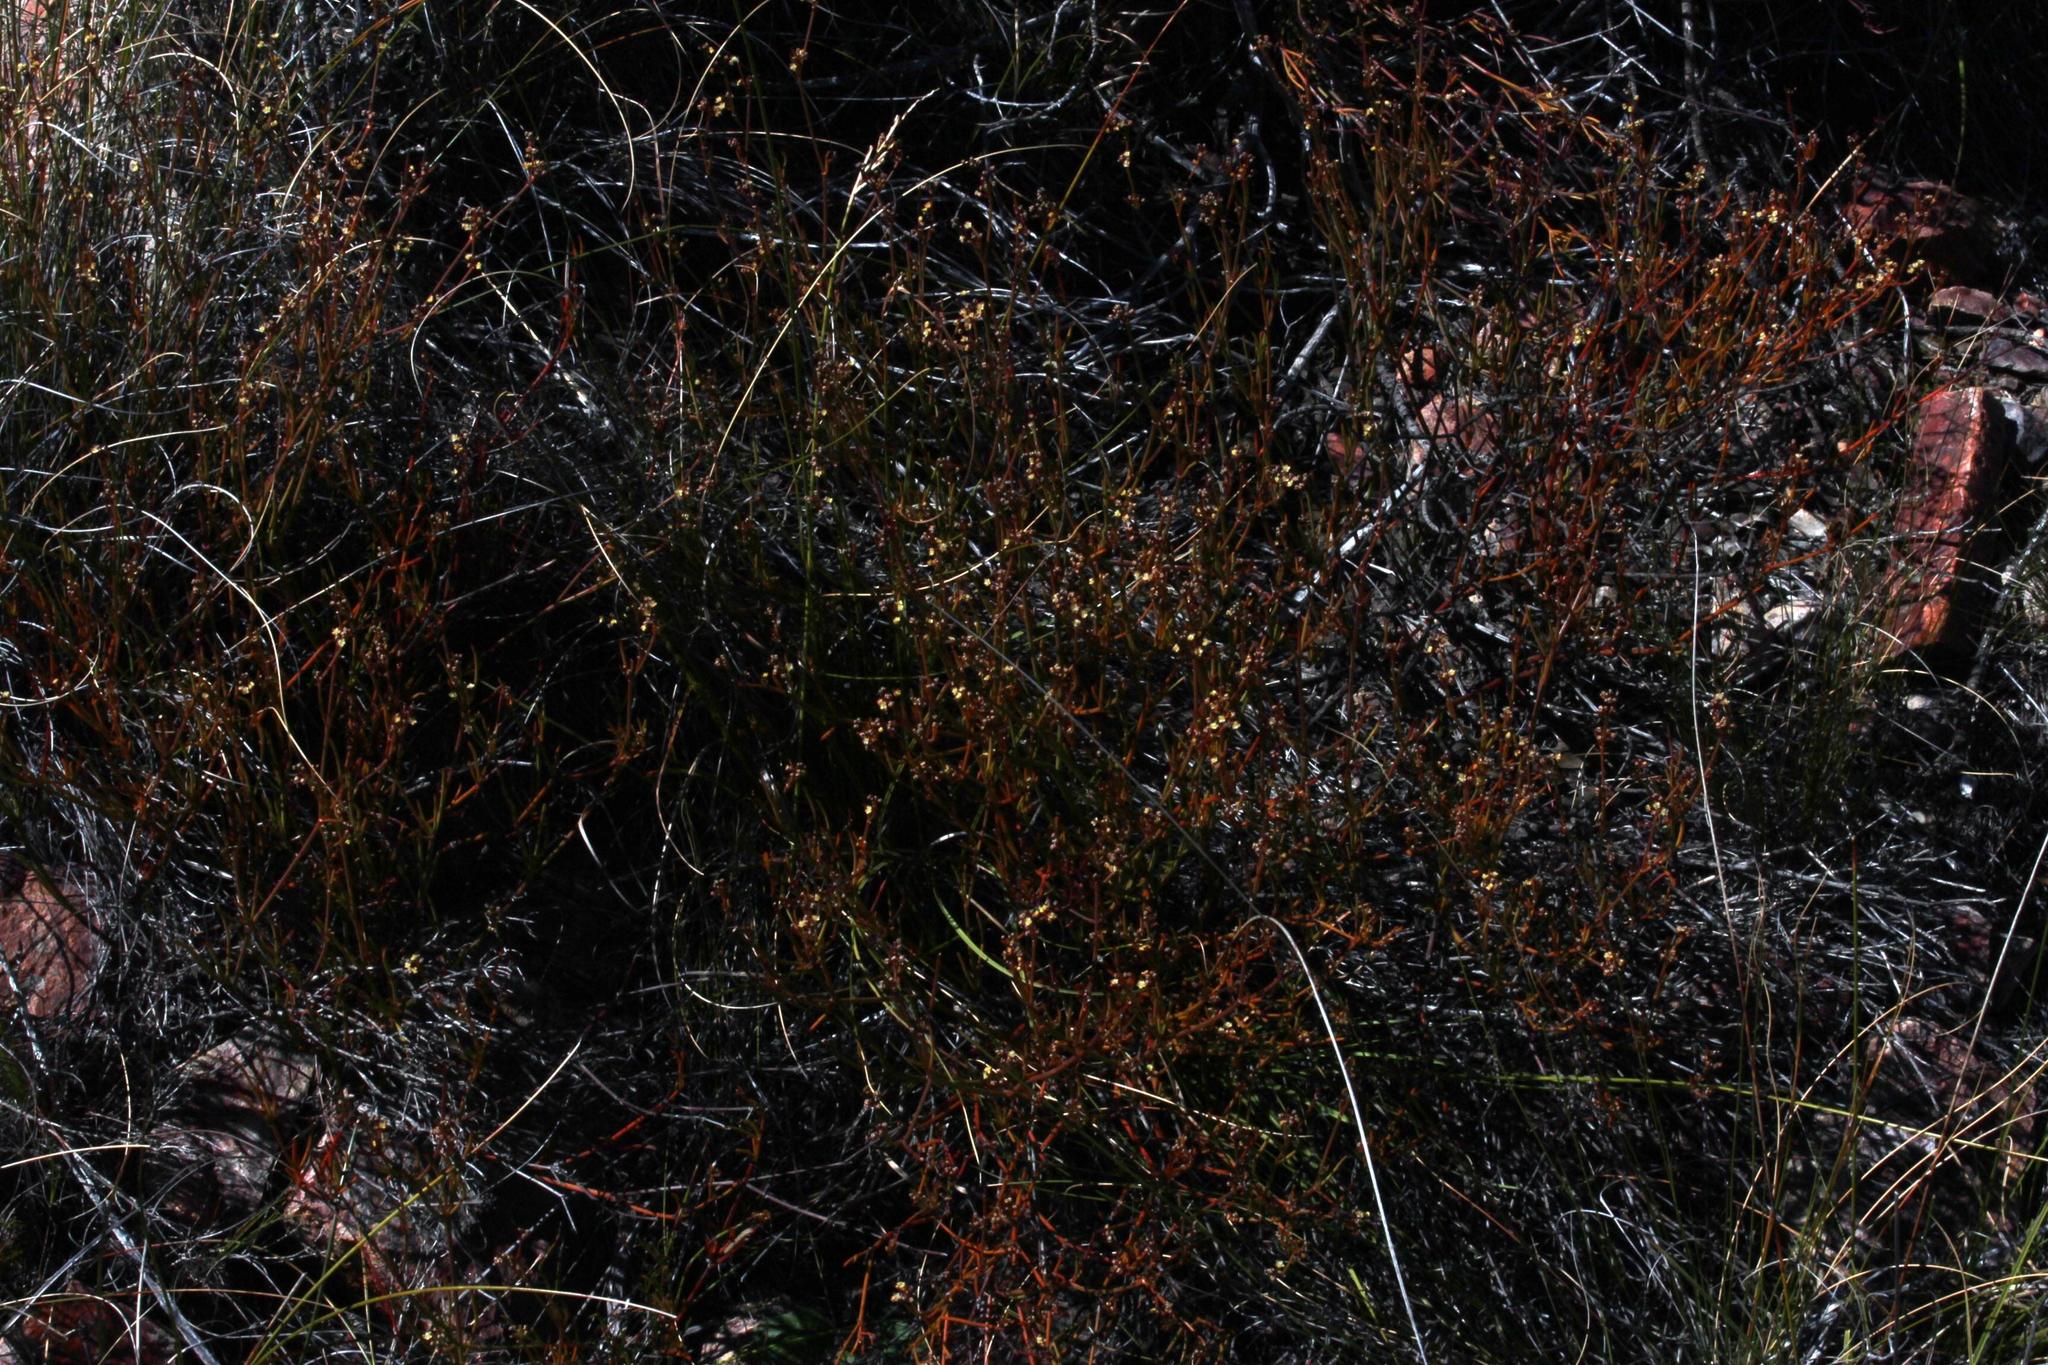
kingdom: Plantae
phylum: Tracheophyta
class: Magnoliopsida
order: Apiales
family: Apiaceae
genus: Centella
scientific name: Centella linifolia
